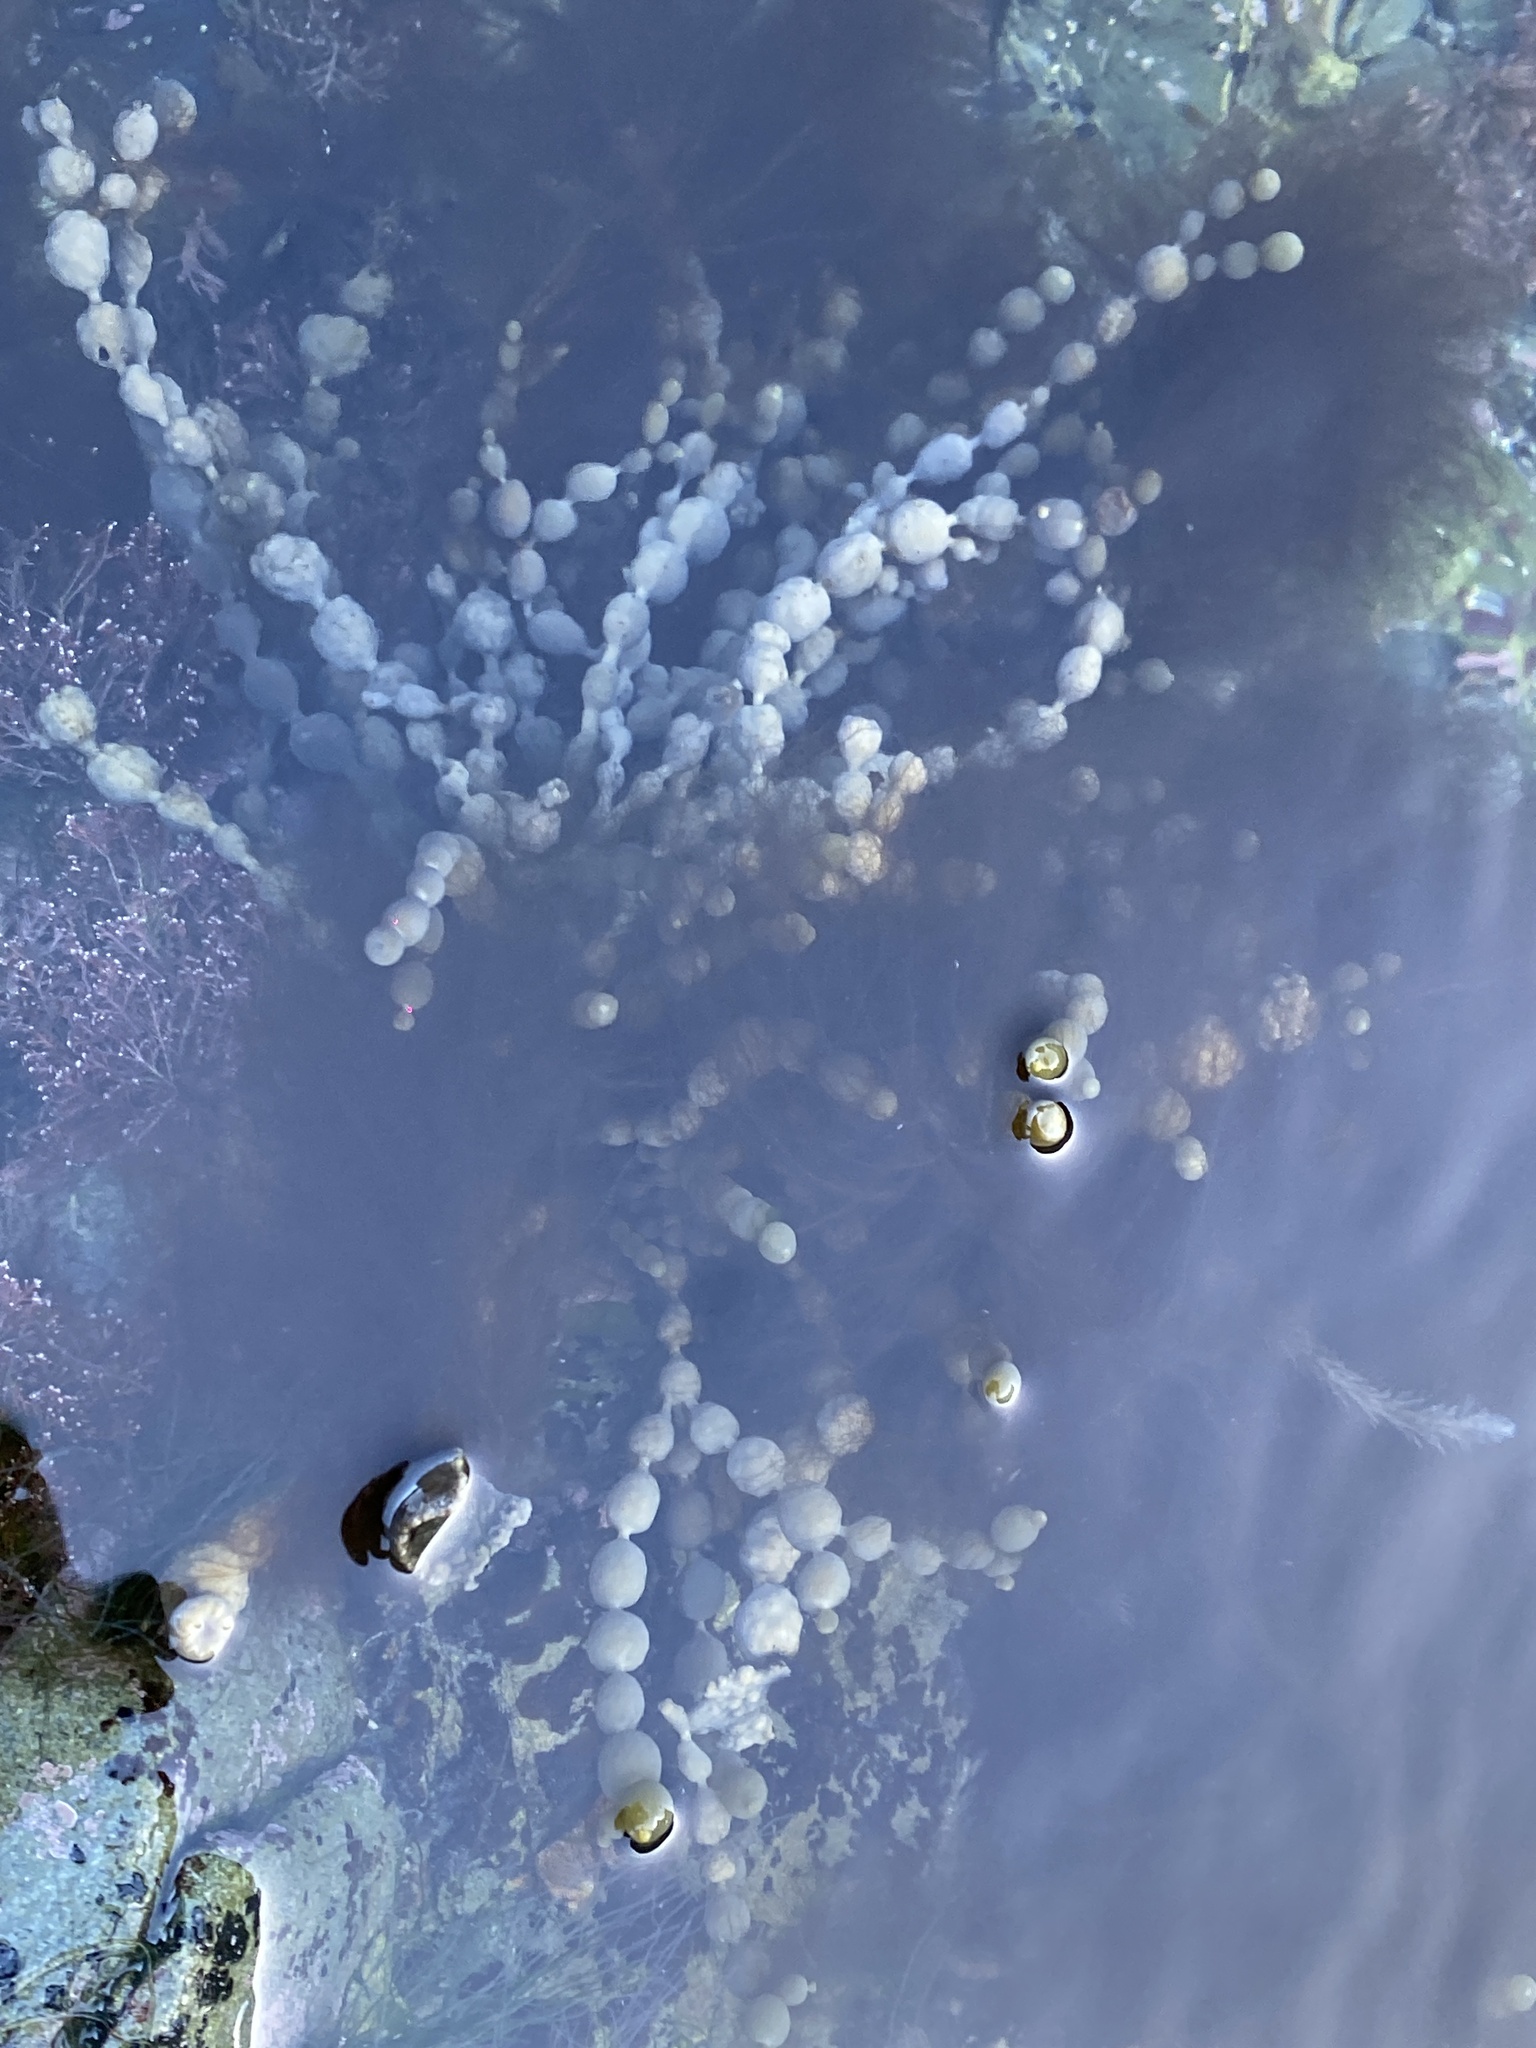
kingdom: Chromista
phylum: Ochrophyta
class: Phaeophyceae
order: Fucales
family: Hormosiraceae
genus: Hormosira
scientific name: Hormosira banksii
